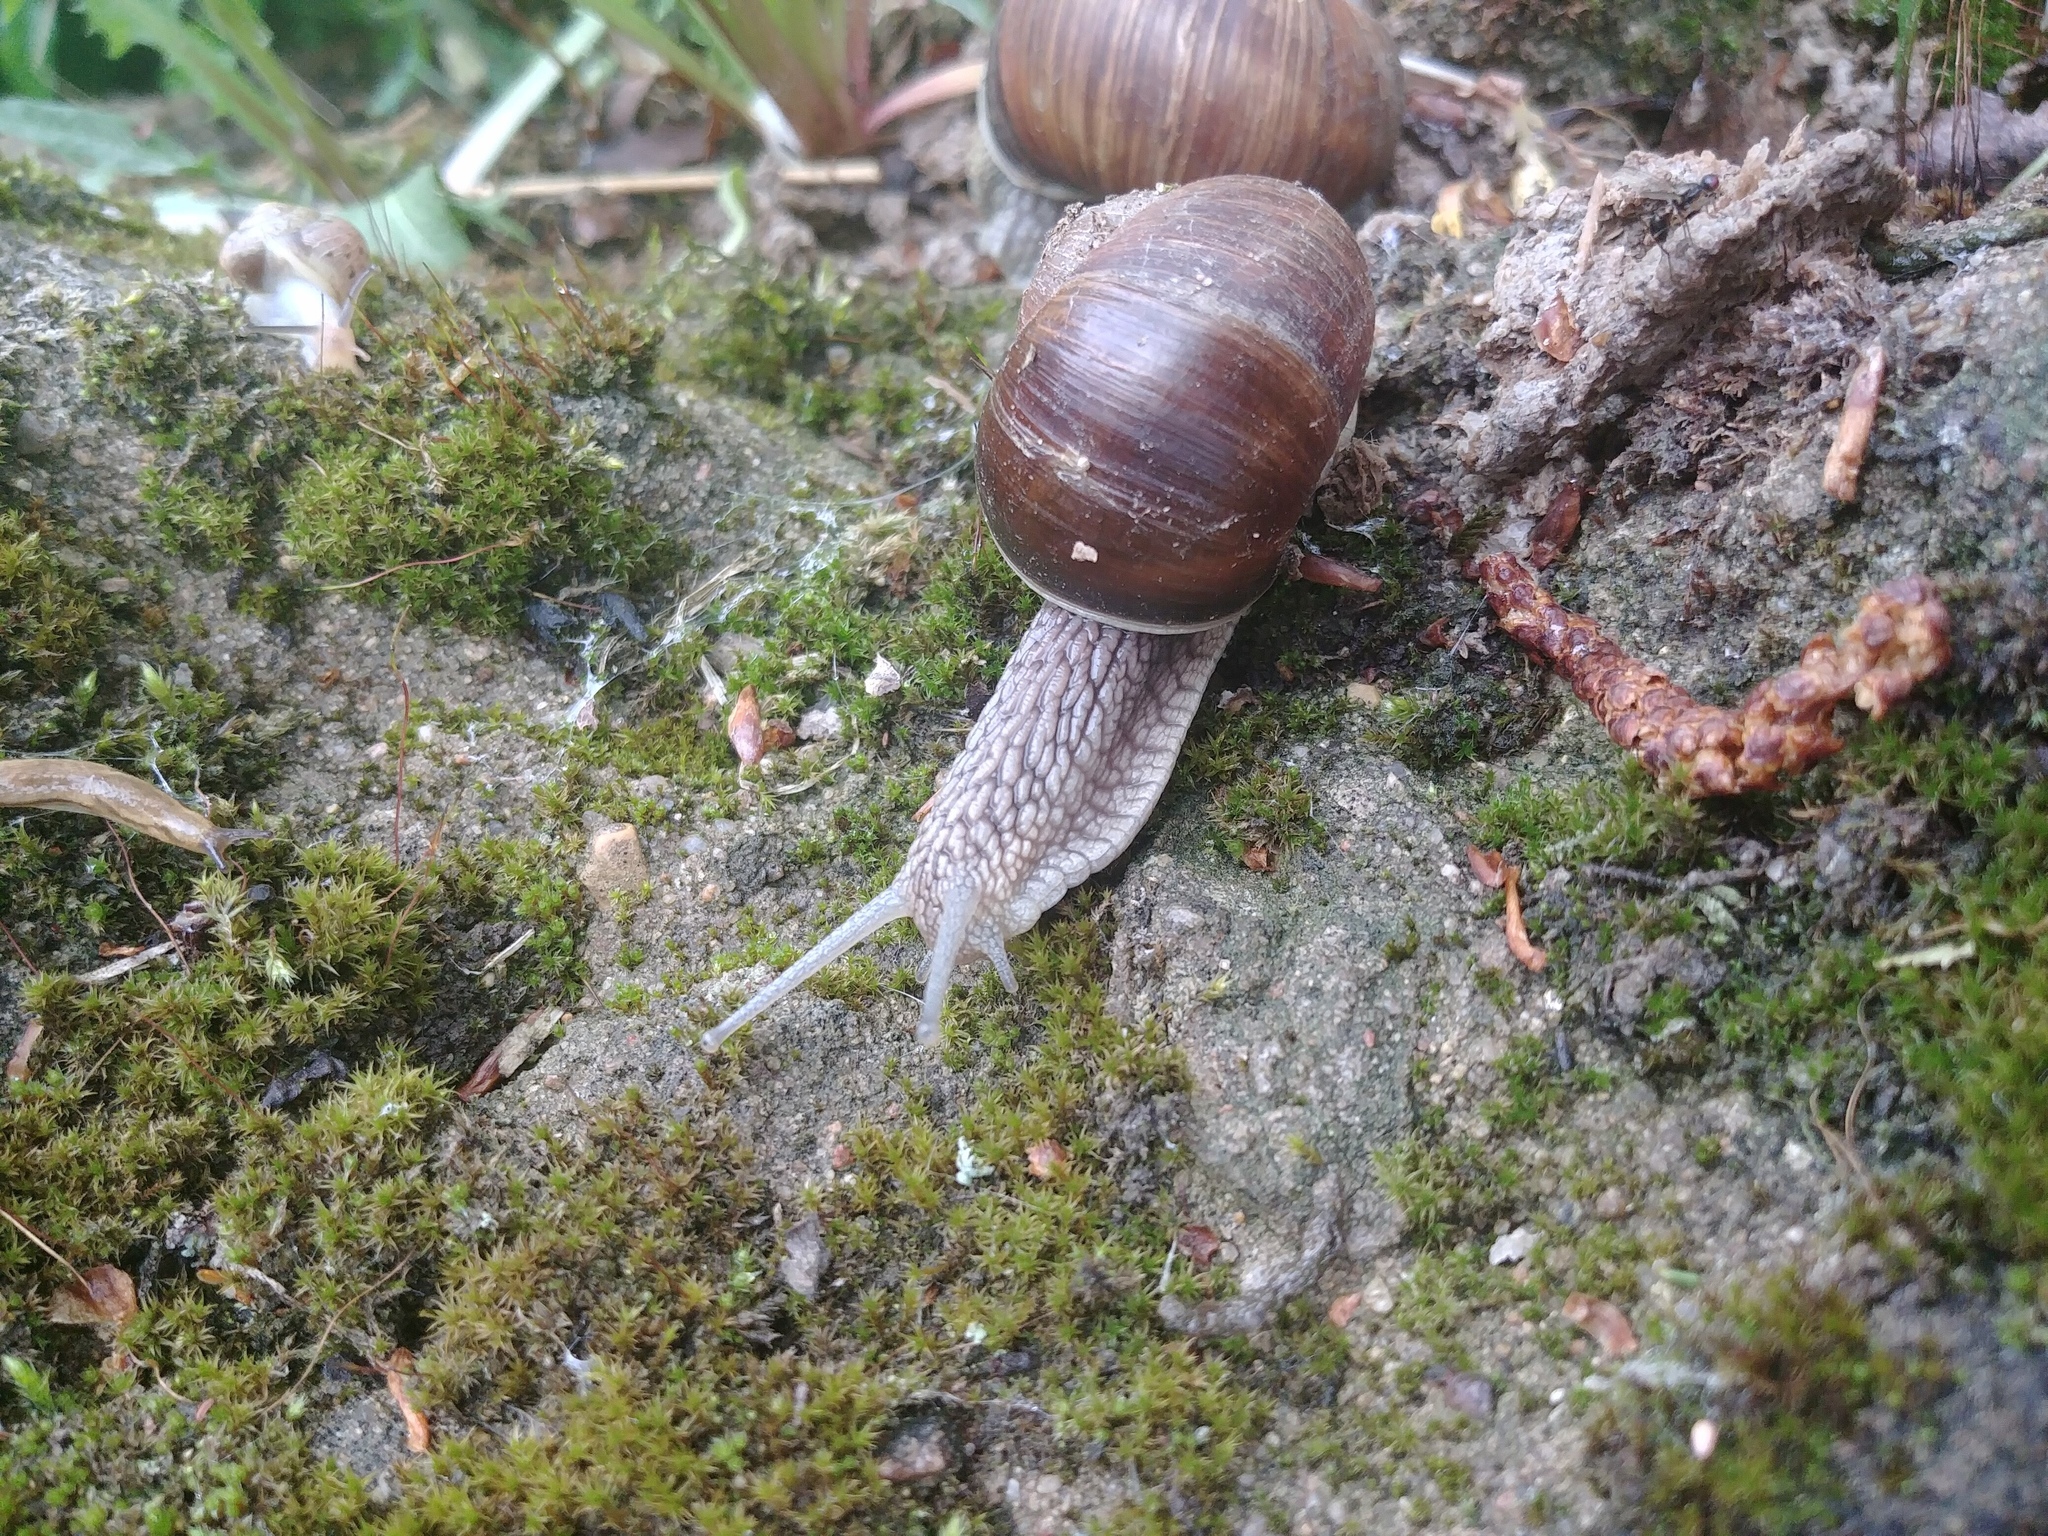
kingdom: Animalia
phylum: Mollusca
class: Gastropoda
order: Stylommatophora
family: Helicidae
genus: Helix
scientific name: Helix pomatia
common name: Roman snail
